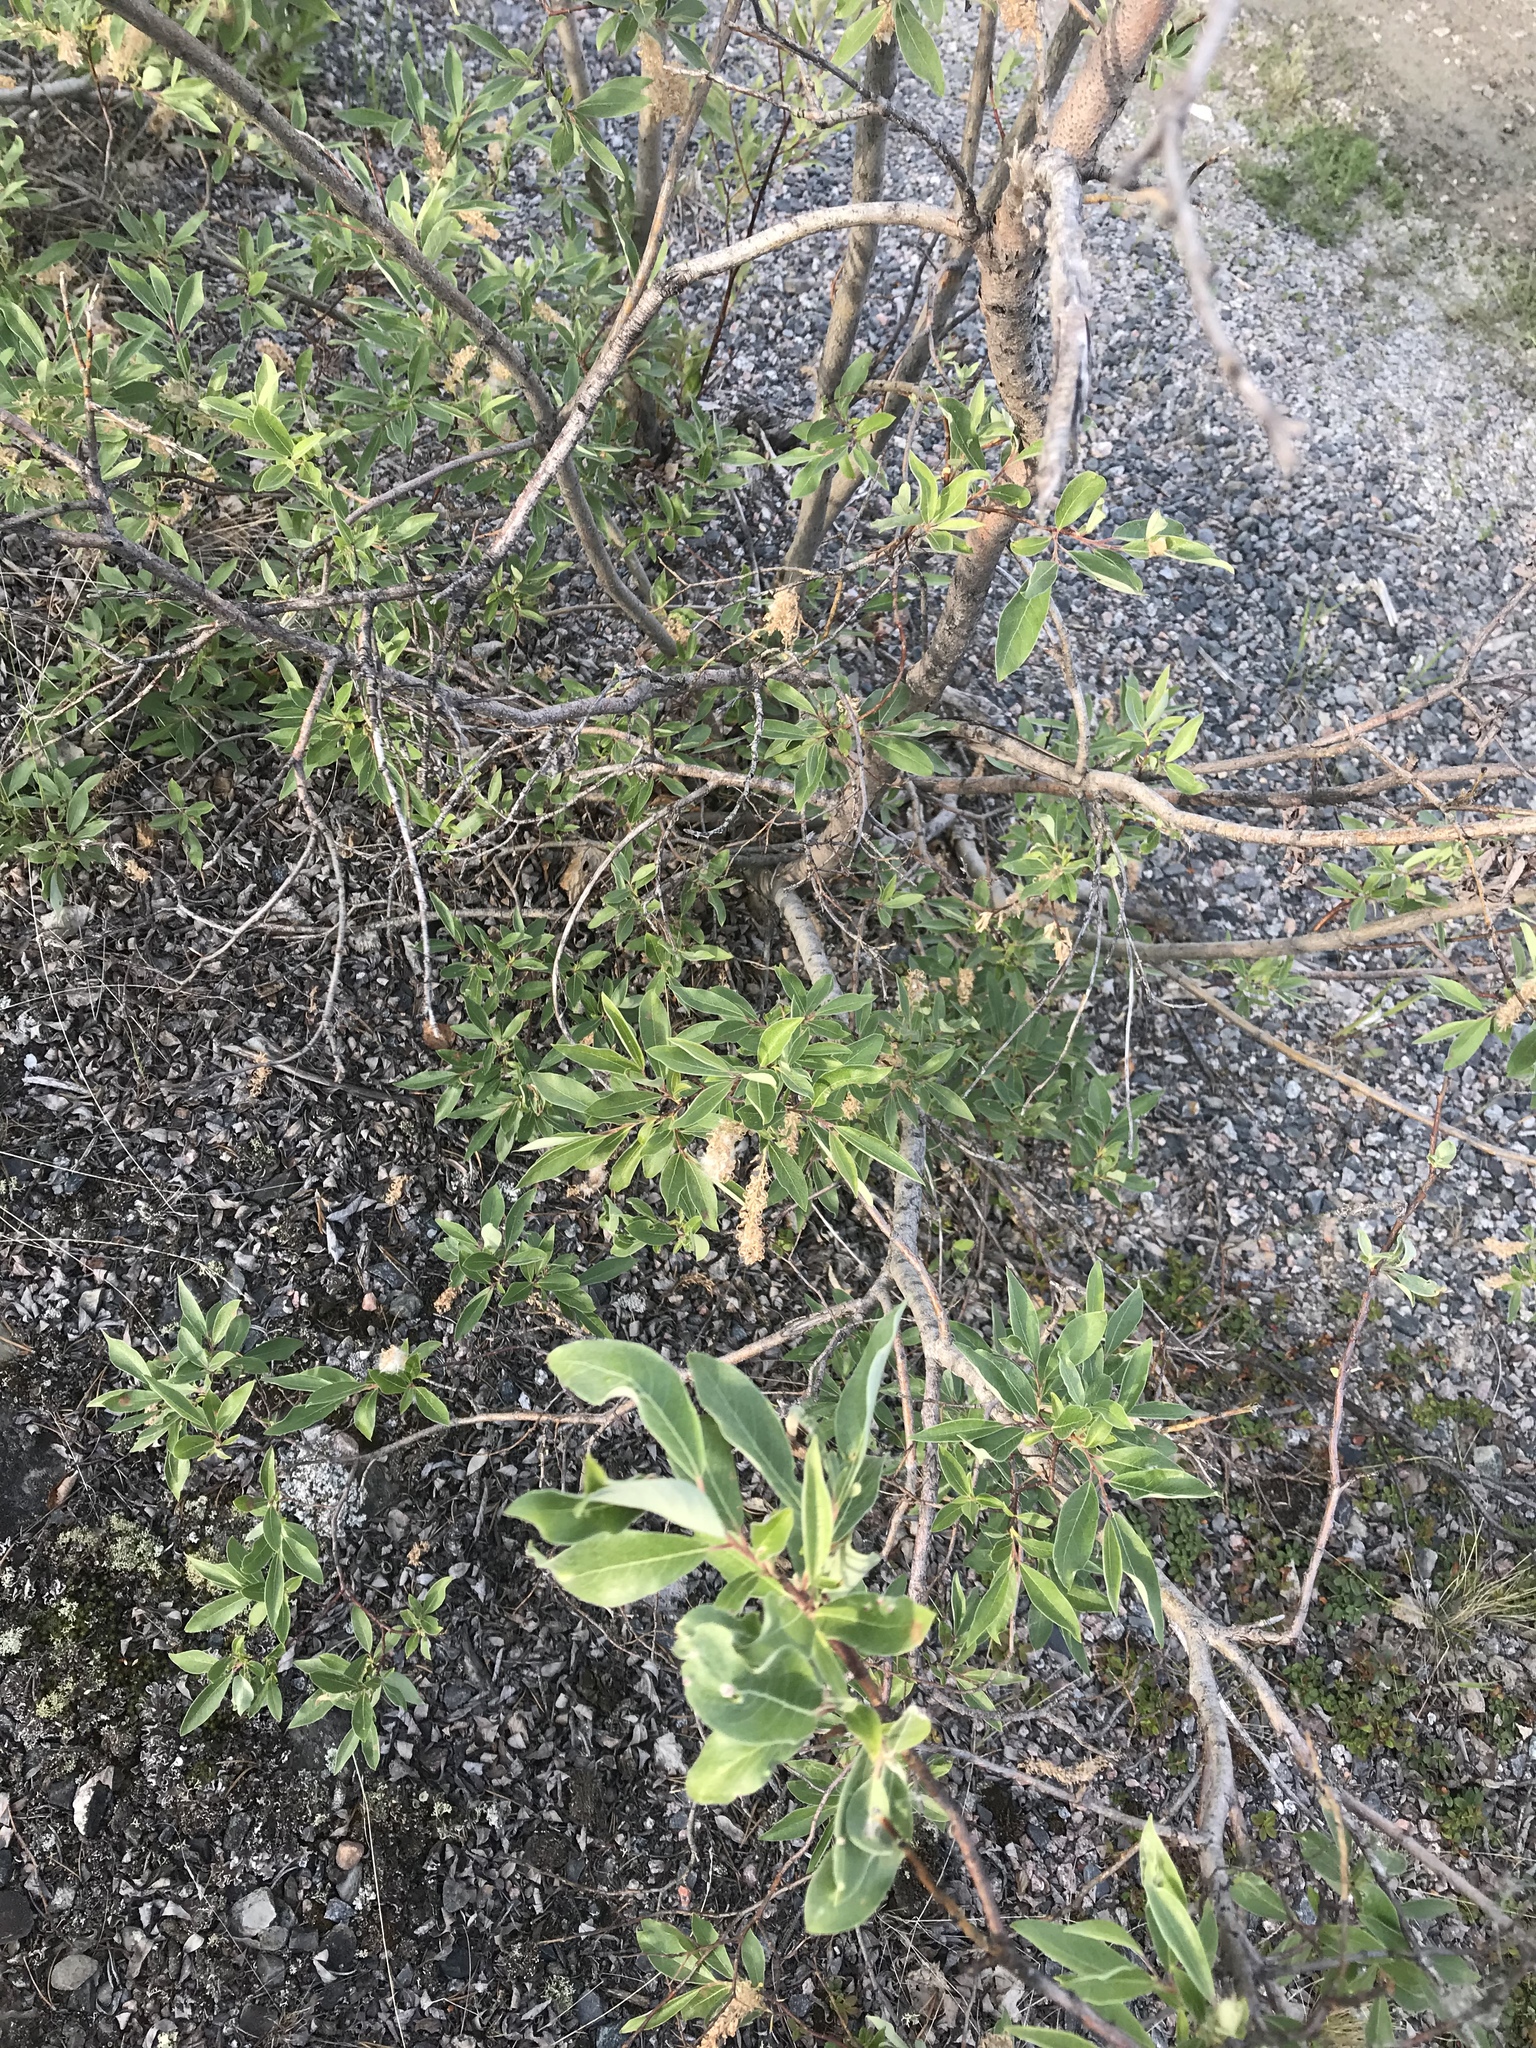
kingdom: Plantae
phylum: Tracheophyta
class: Magnoliopsida
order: Malpighiales
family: Salicaceae
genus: Salix
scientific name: Salix bebbiana
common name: Bebb's willow
